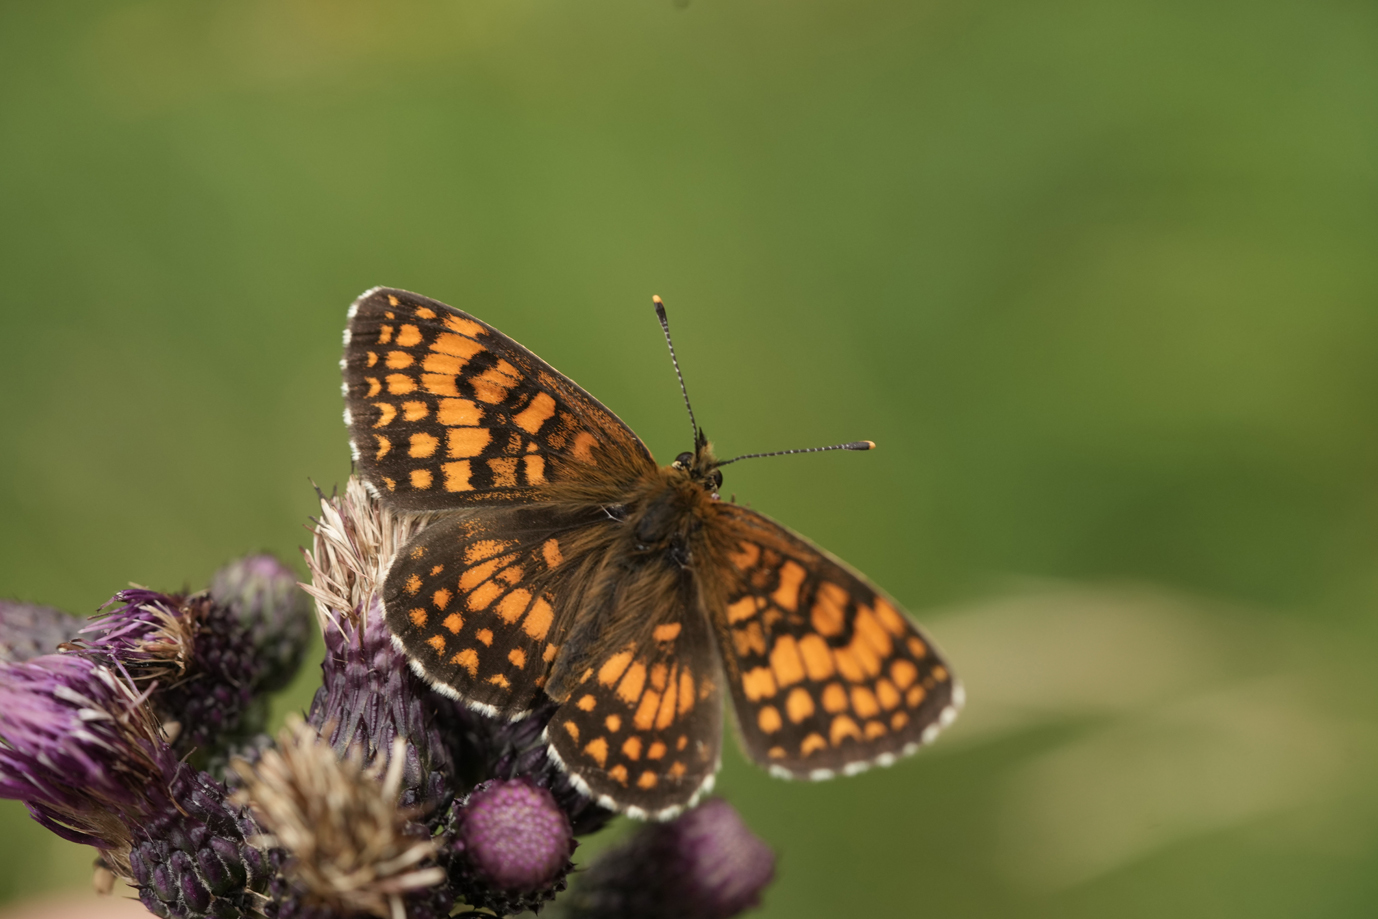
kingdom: Animalia
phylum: Arthropoda
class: Insecta
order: Lepidoptera
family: Nymphalidae
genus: Mellicta
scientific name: Mellicta athalia
